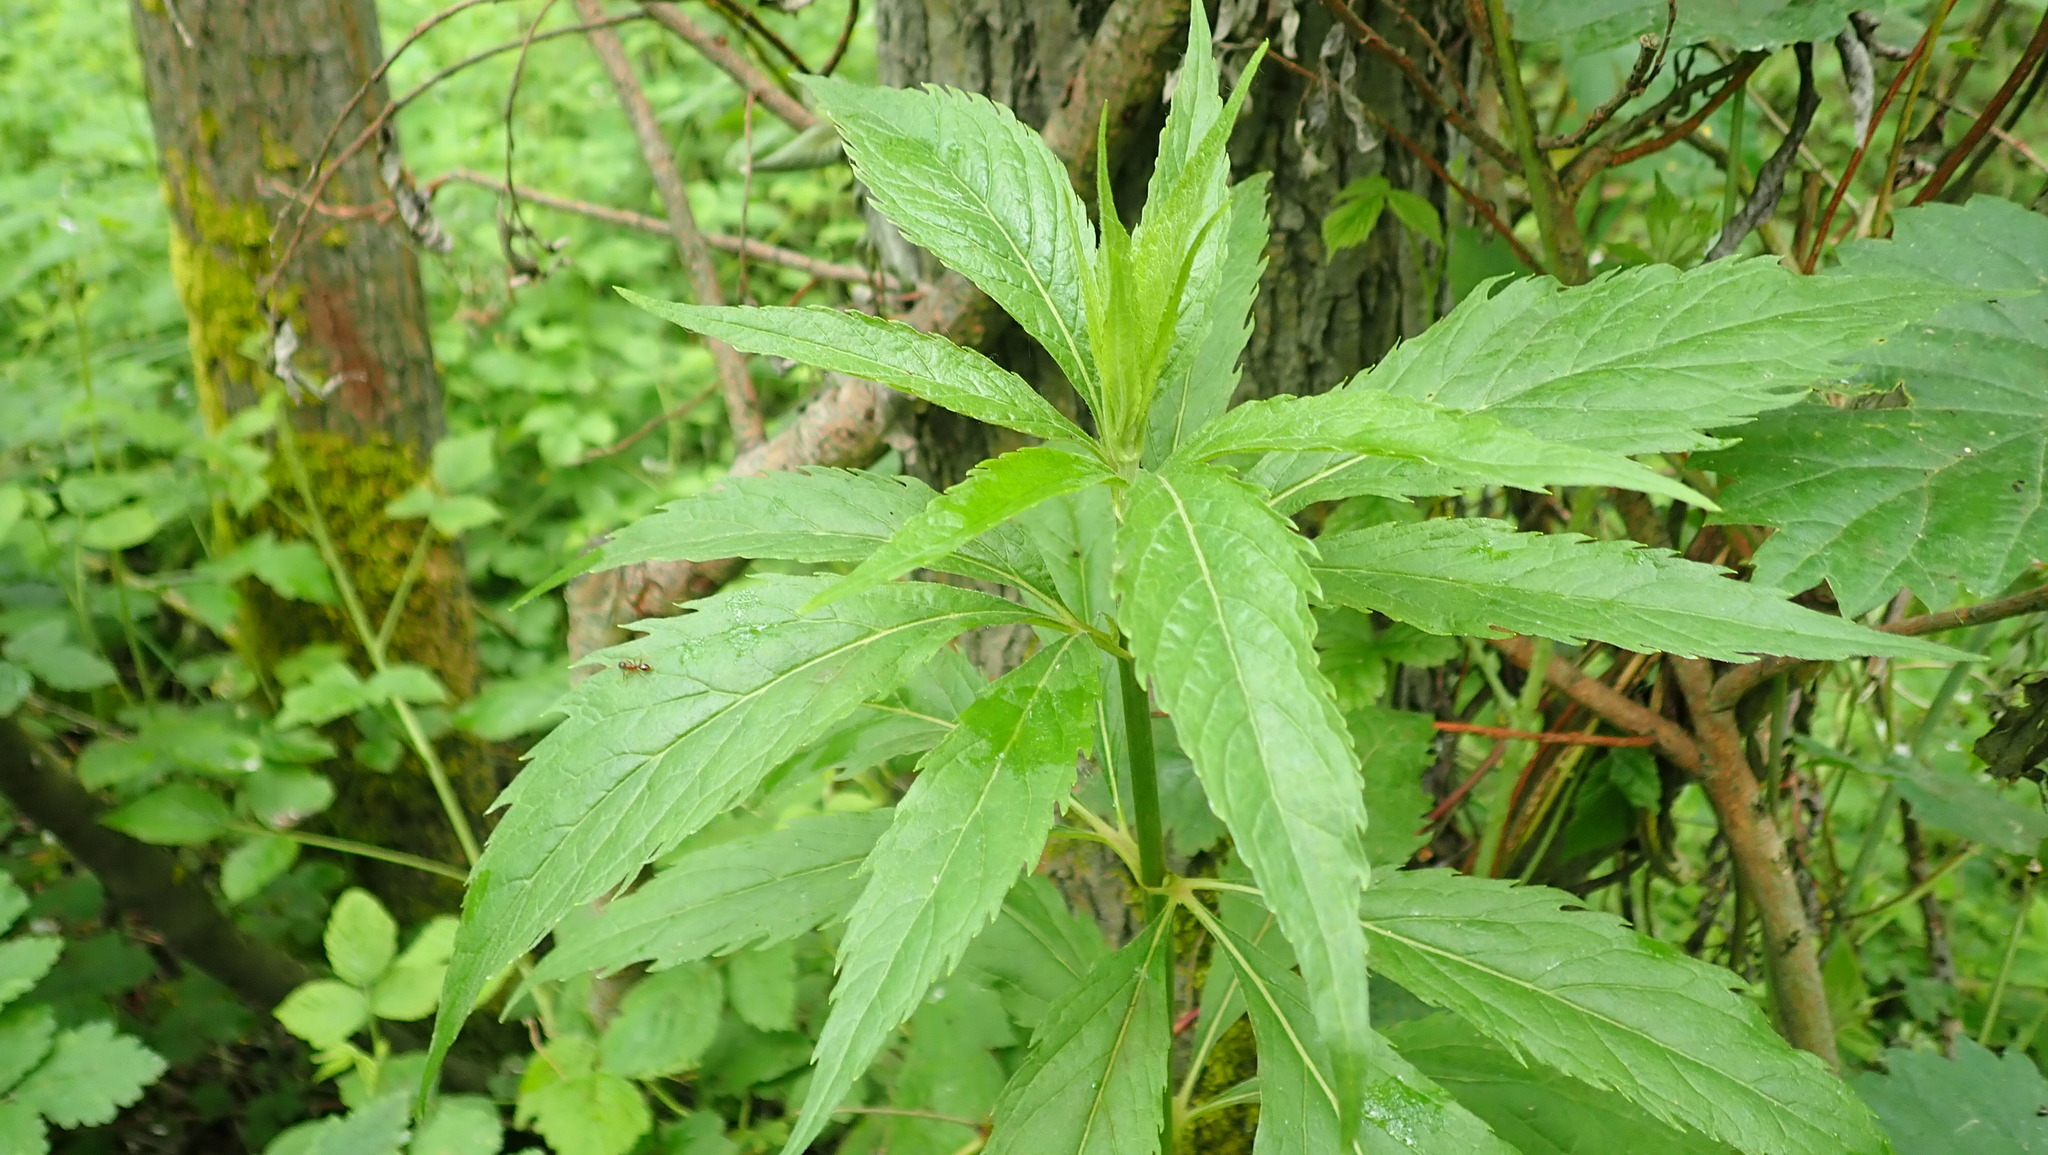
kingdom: Plantae
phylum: Tracheophyta
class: Magnoliopsida
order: Asterales
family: Asteraceae
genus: Eupatorium
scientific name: Eupatorium cannabinum
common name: Hemp-agrimony
